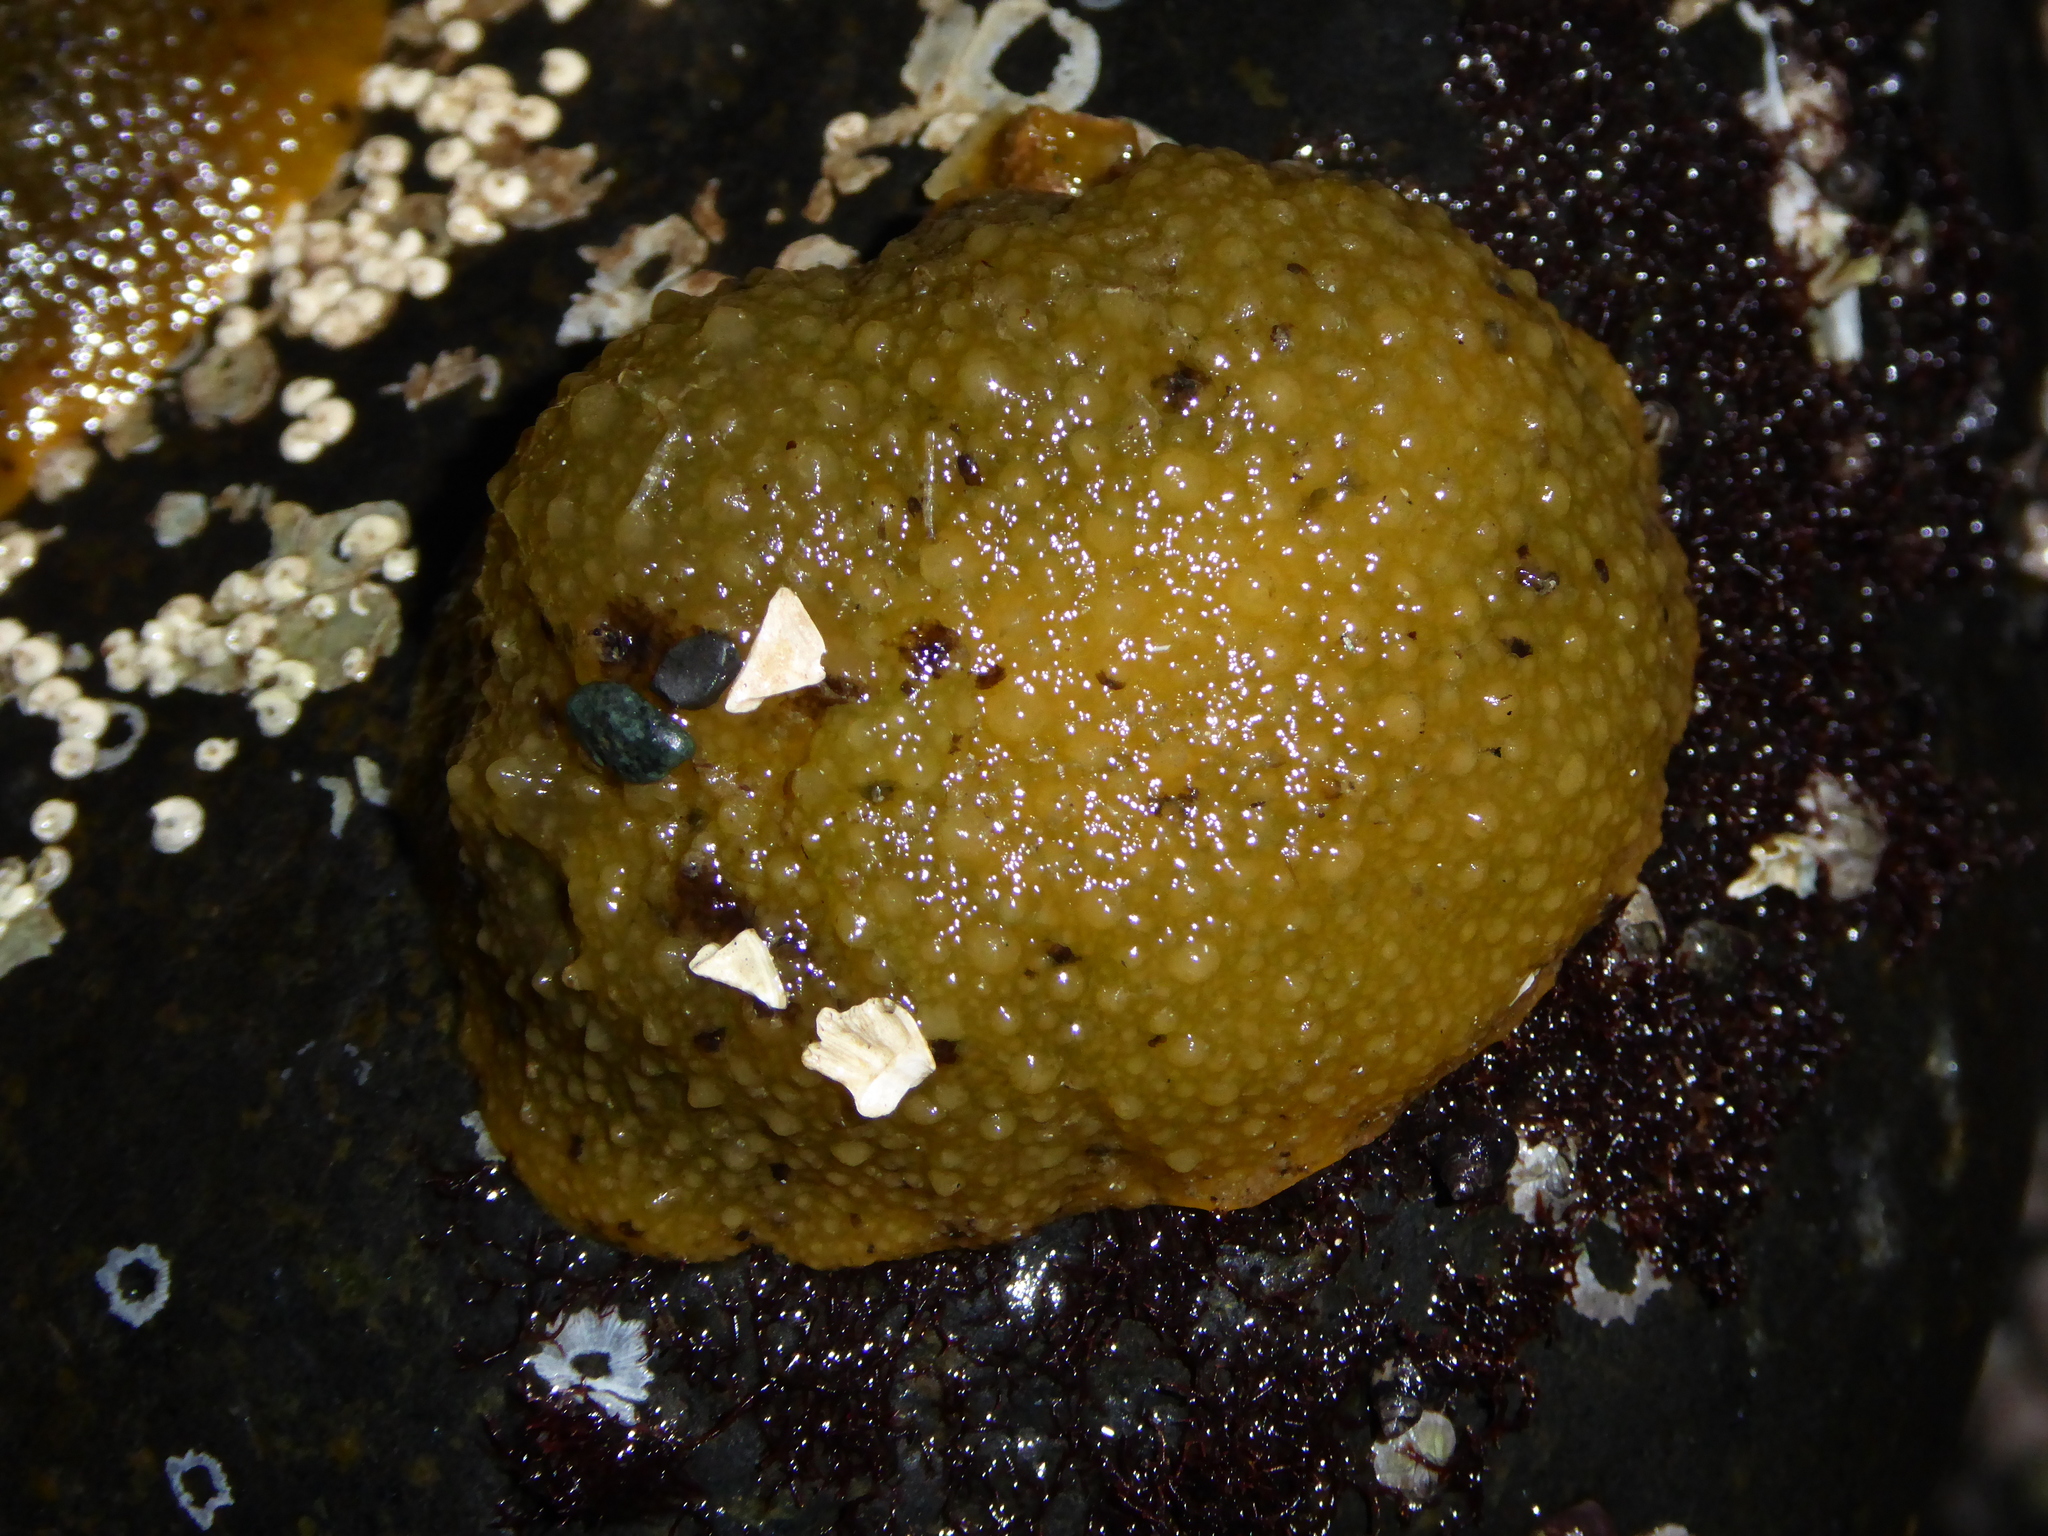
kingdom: Animalia
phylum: Mollusca
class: Gastropoda
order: Nudibranchia
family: Dorididae
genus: Doris
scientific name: Doris montereyensis
